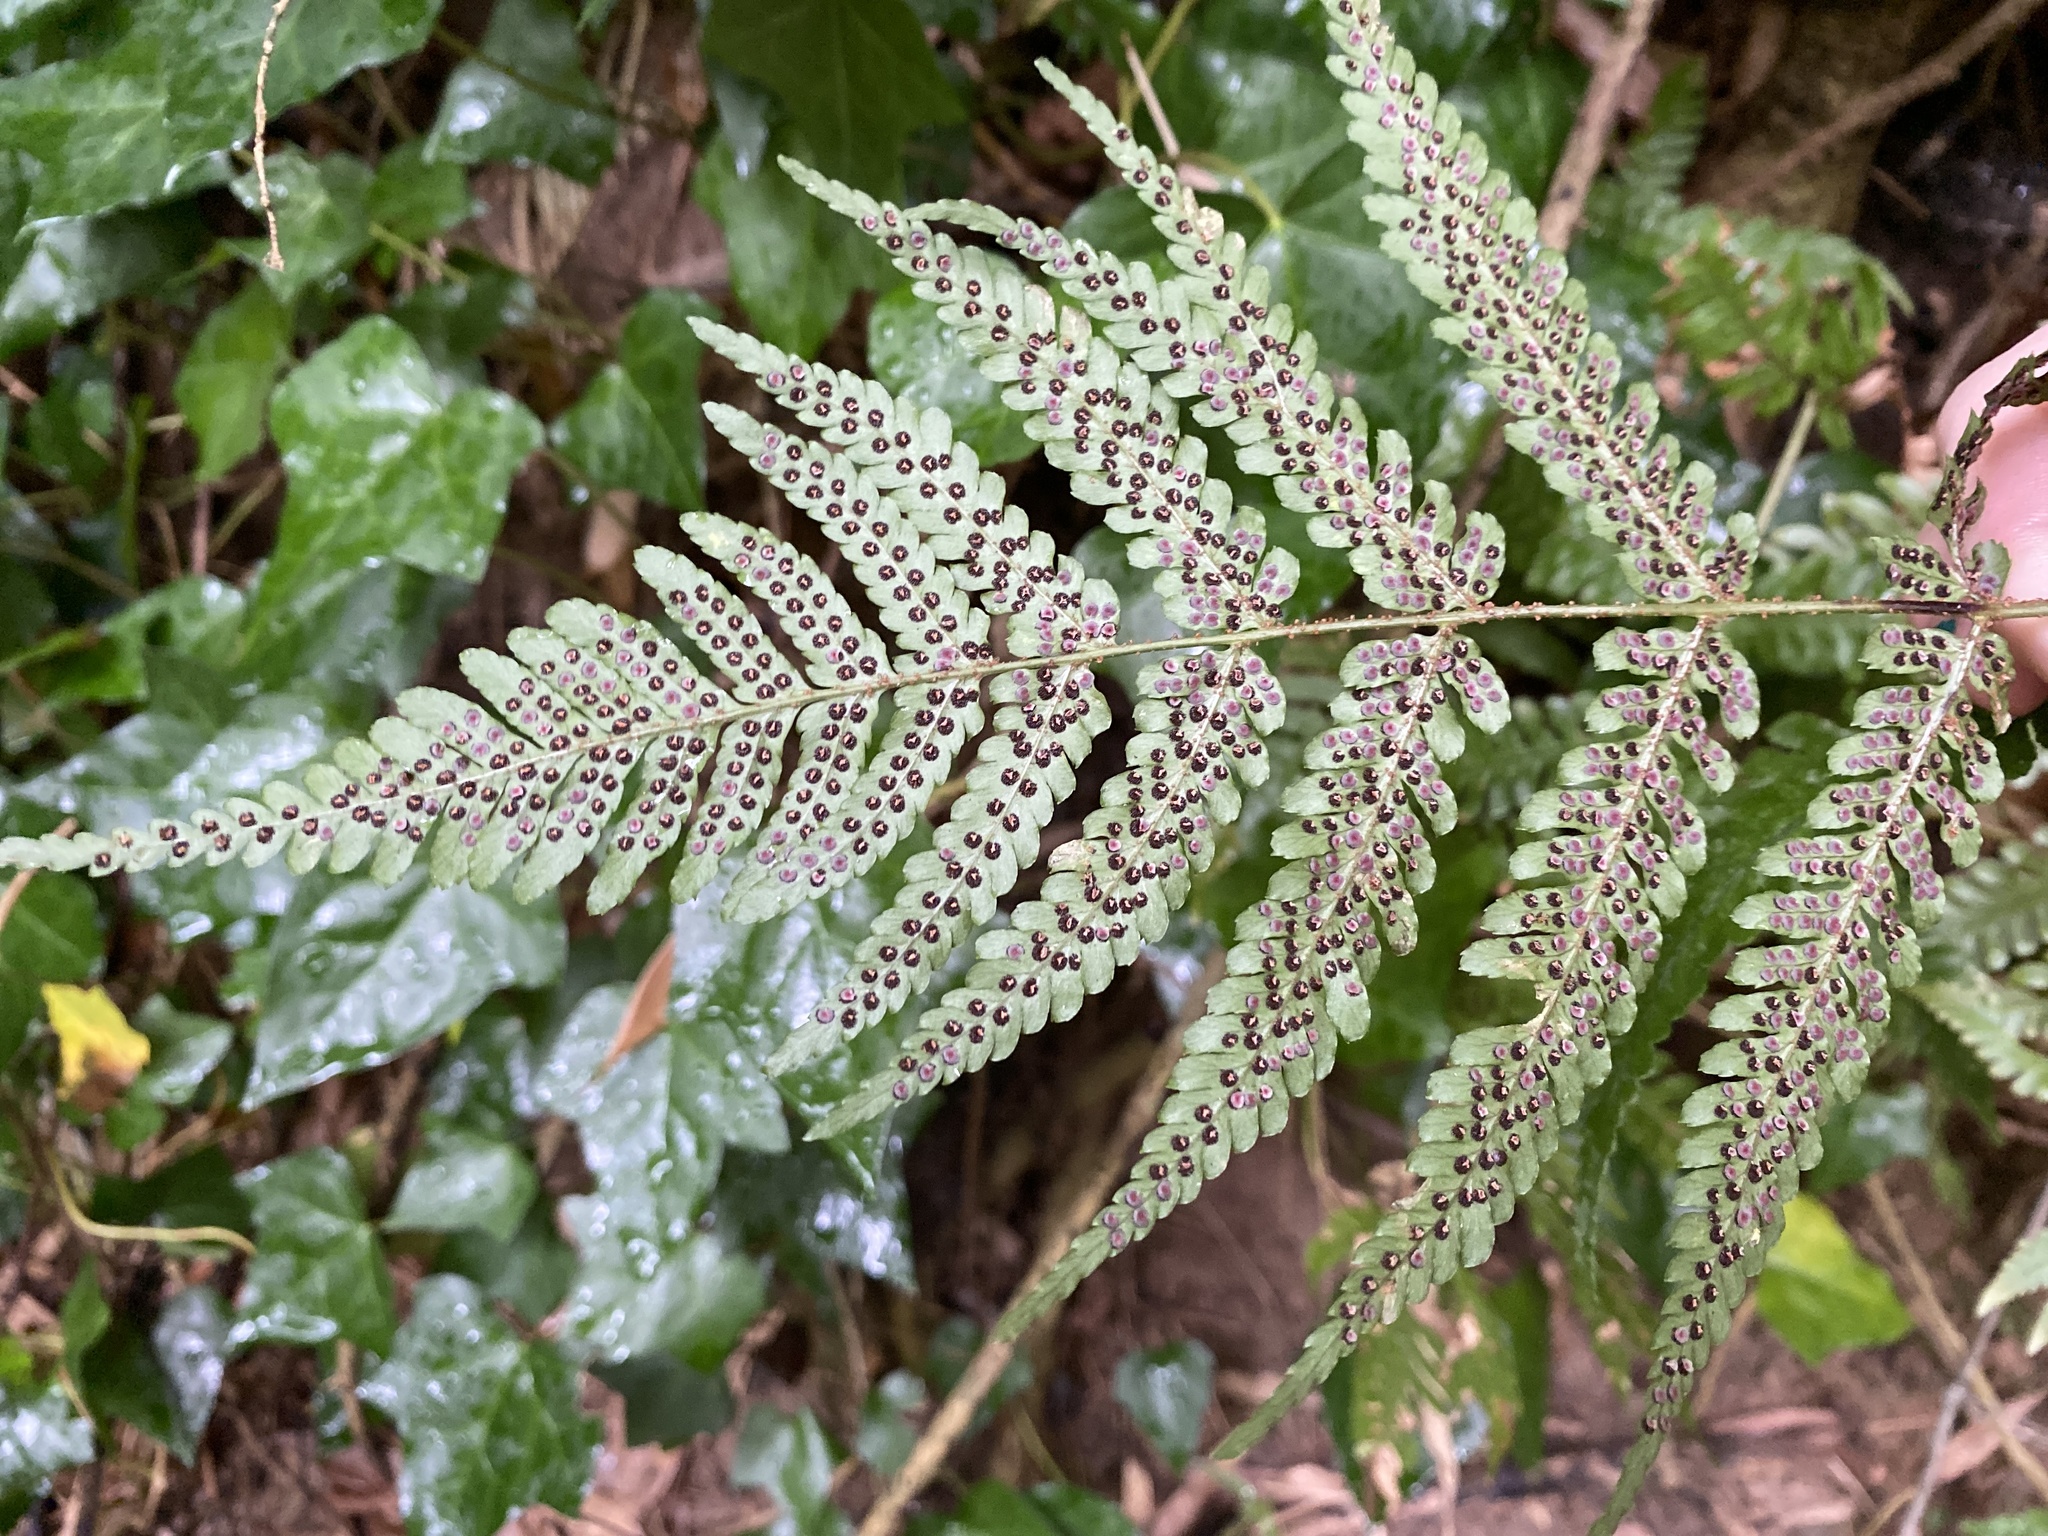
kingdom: Plantae
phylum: Tracheophyta
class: Polypodiopsida
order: Polypodiales
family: Dryopteridaceae
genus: Dryopteris
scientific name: Dryopteris erythrosora
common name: Autumn fern
